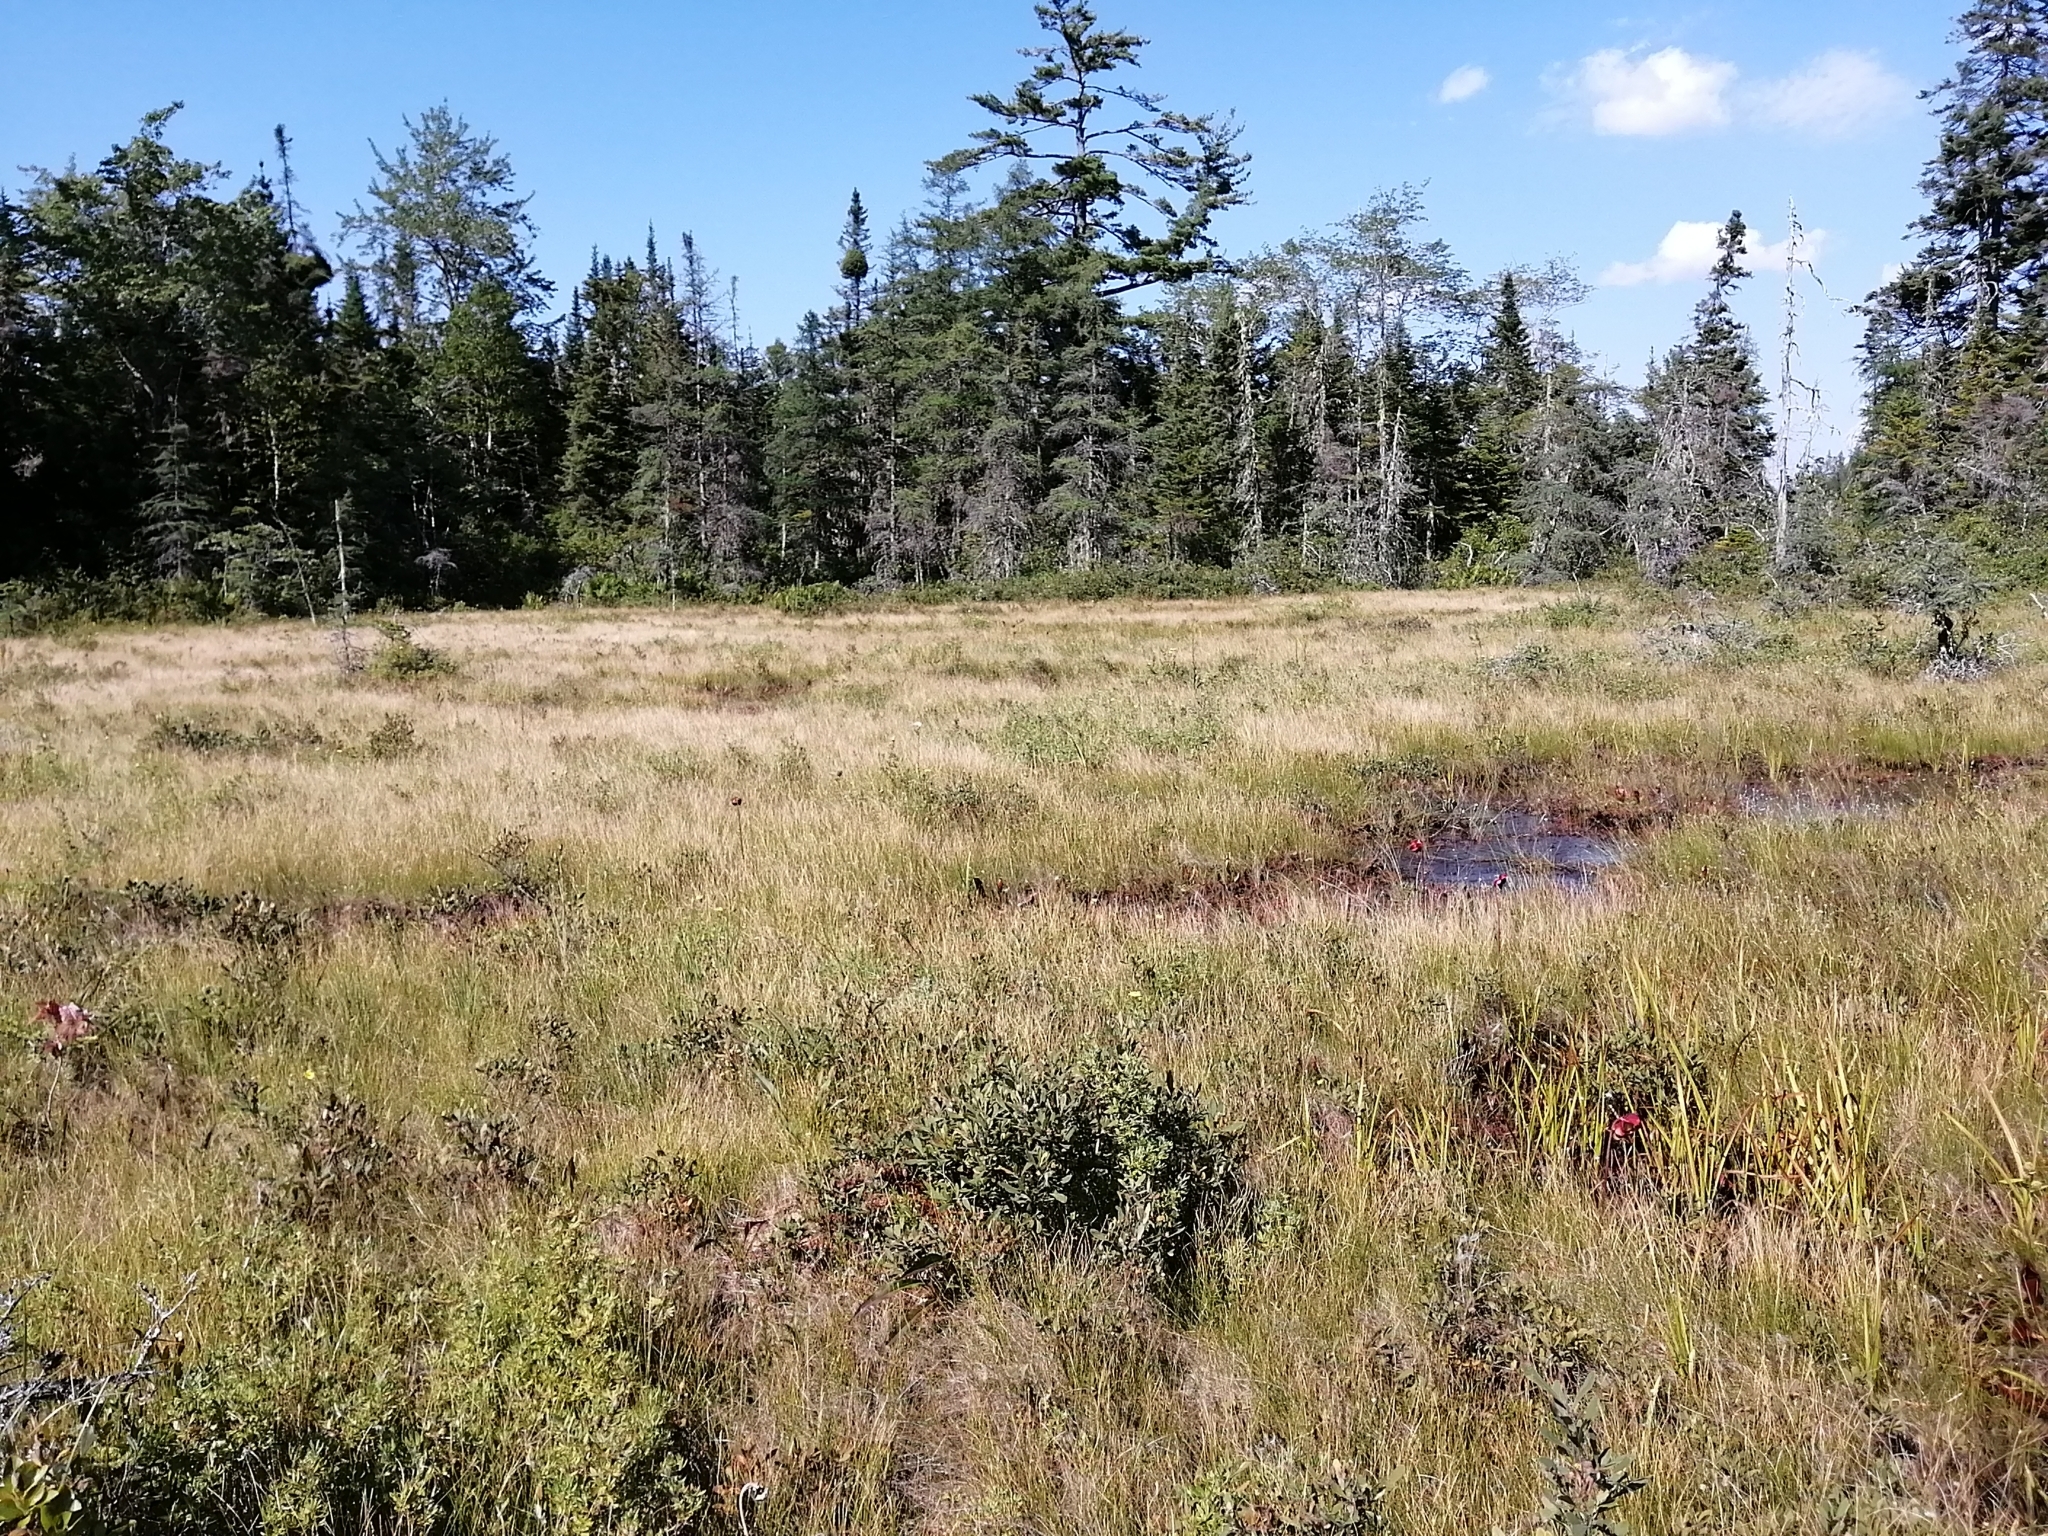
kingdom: Plantae
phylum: Tracheophyta
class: Magnoliopsida
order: Rosales
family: Rosaceae
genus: Dasiphora
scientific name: Dasiphora fruticosa
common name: Shrubby cinquefoil
